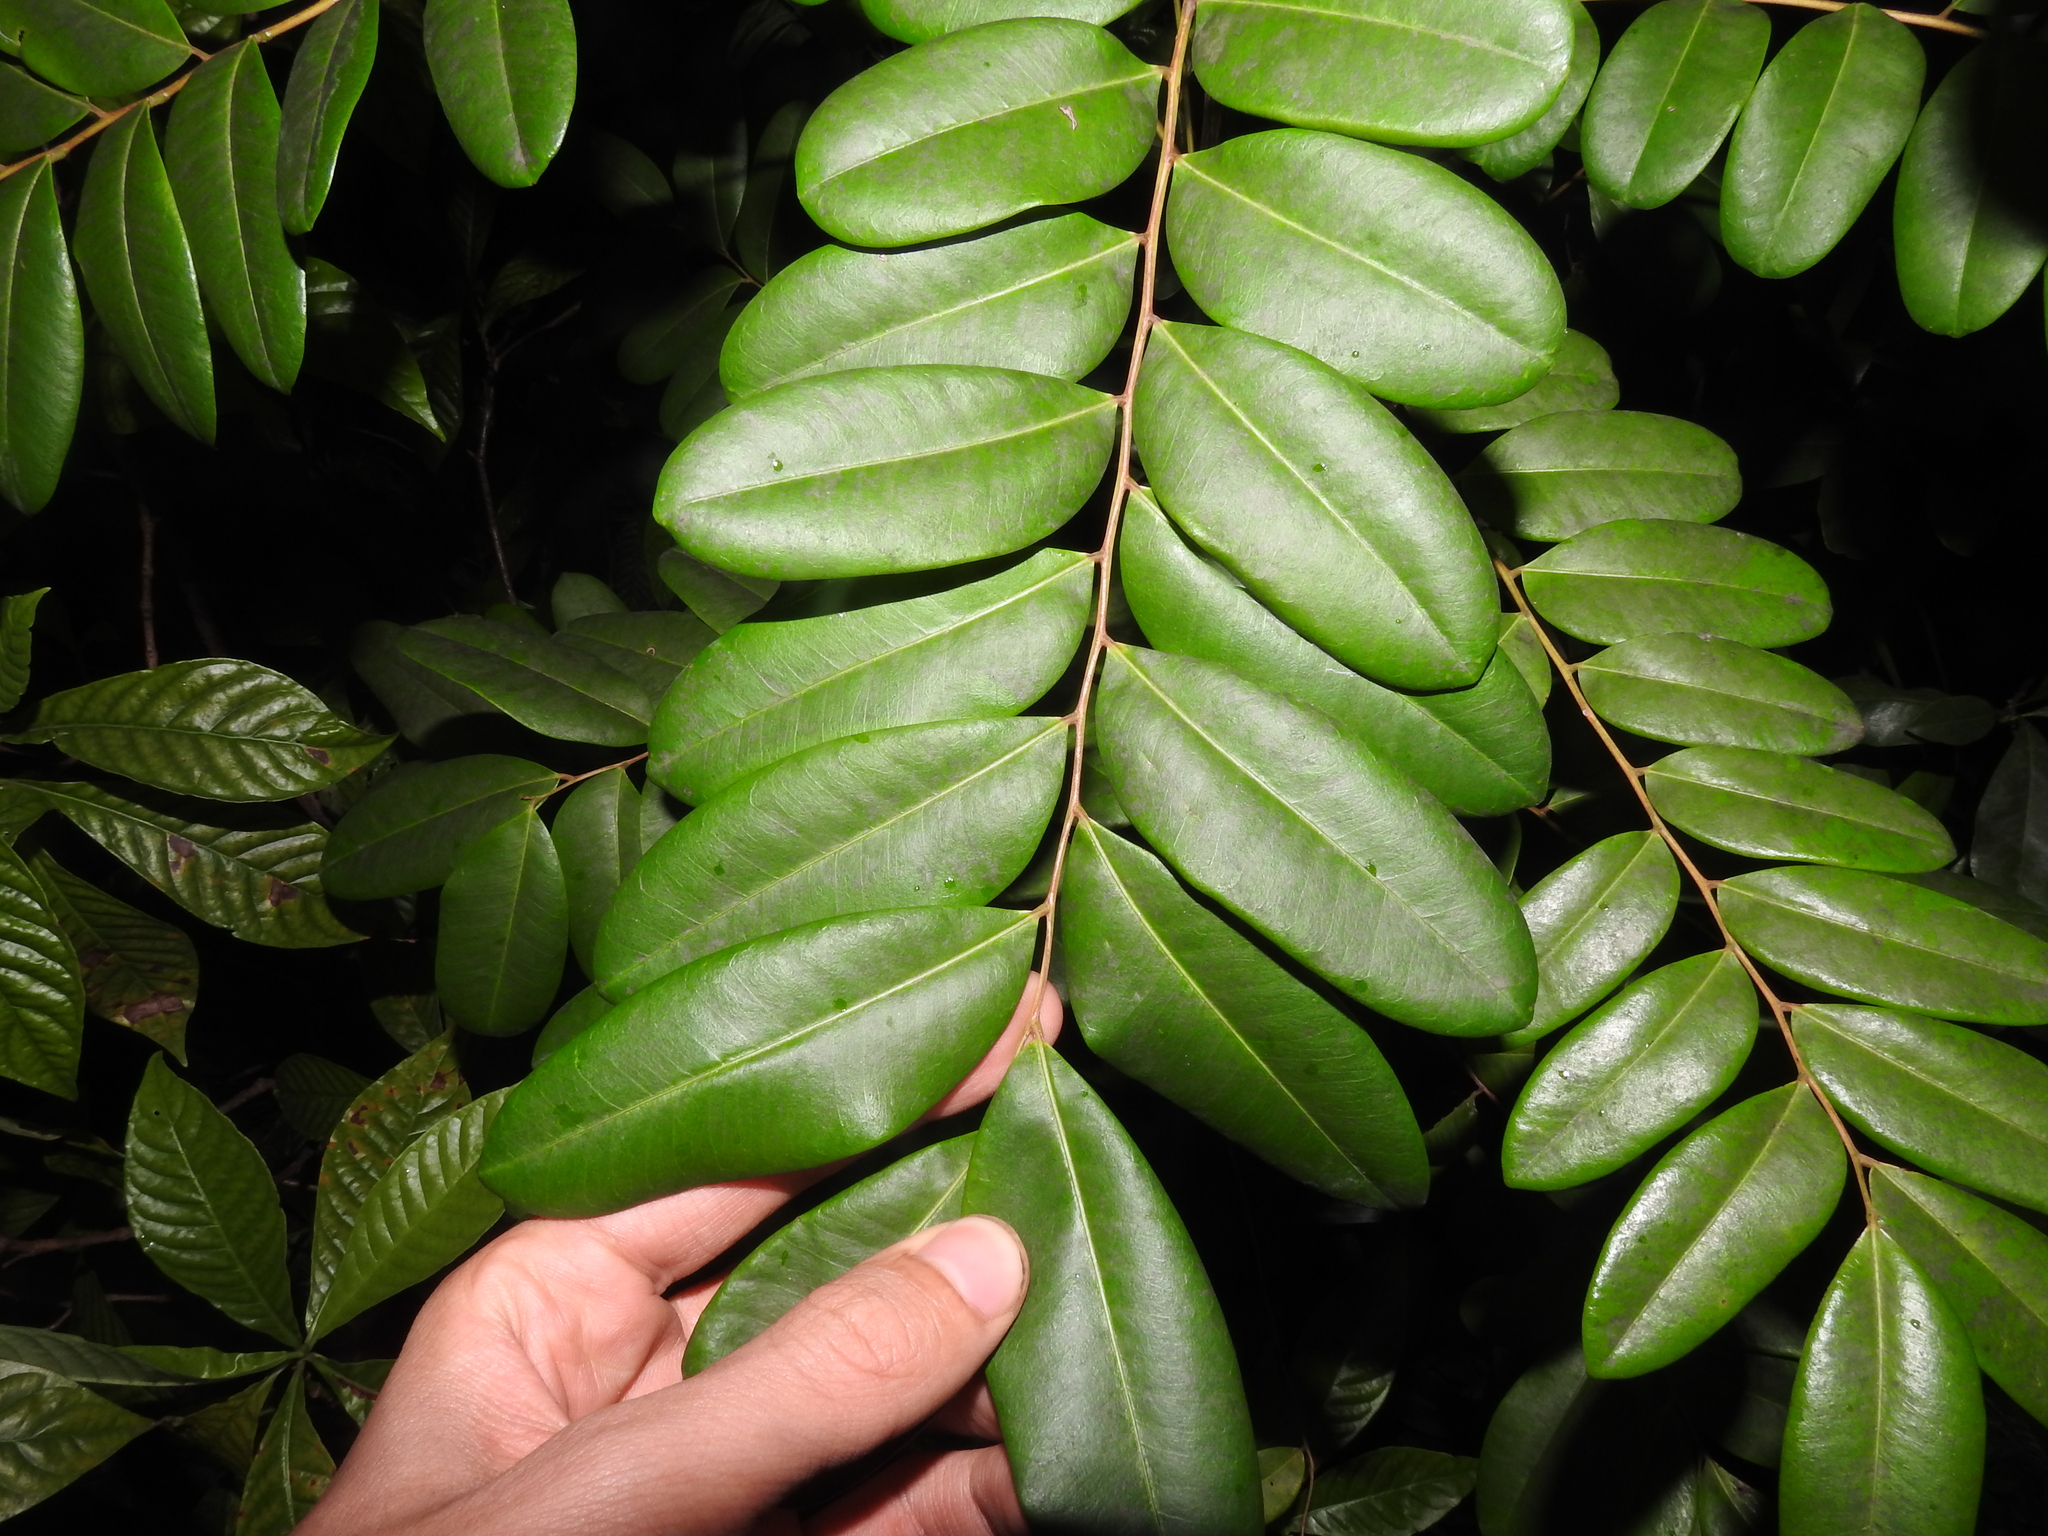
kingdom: Plantae
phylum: Tracheophyta
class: Magnoliopsida
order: Sapindales
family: Simaroubaceae
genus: Simarouba
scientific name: Simarouba glauca
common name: Dysentery-bark
